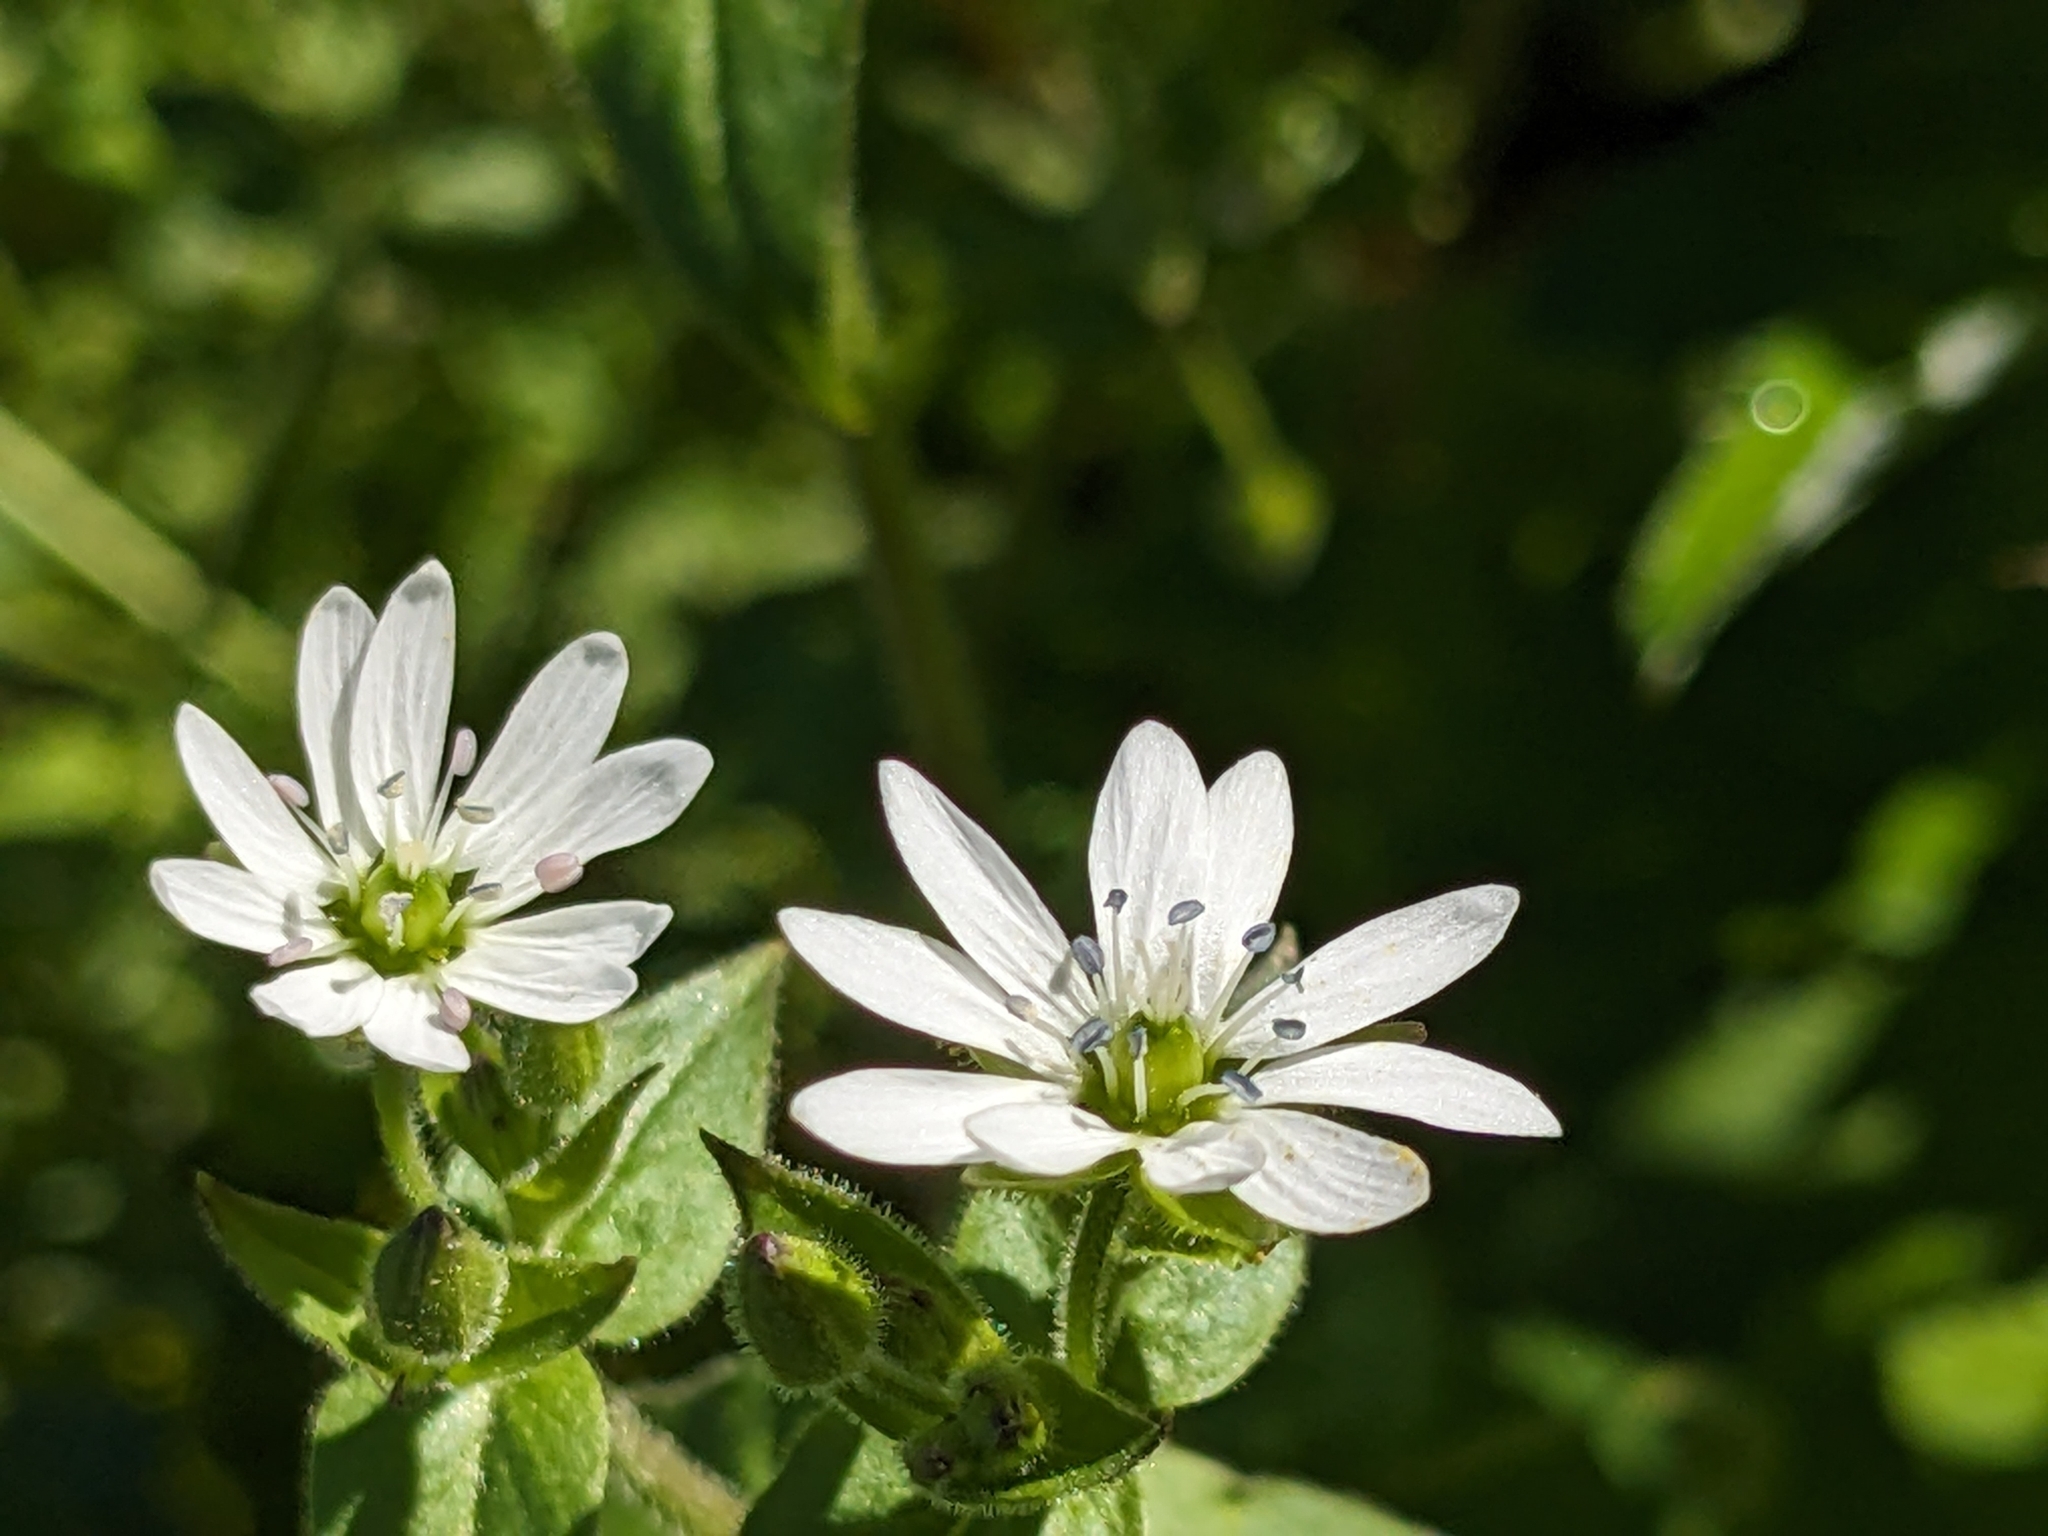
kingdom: Plantae
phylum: Tracheophyta
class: Magnoliopsida
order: Caryophyllales
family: Caryophyllaceae
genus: Stellaria
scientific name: Stellaria aquatica
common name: Water chickweed
